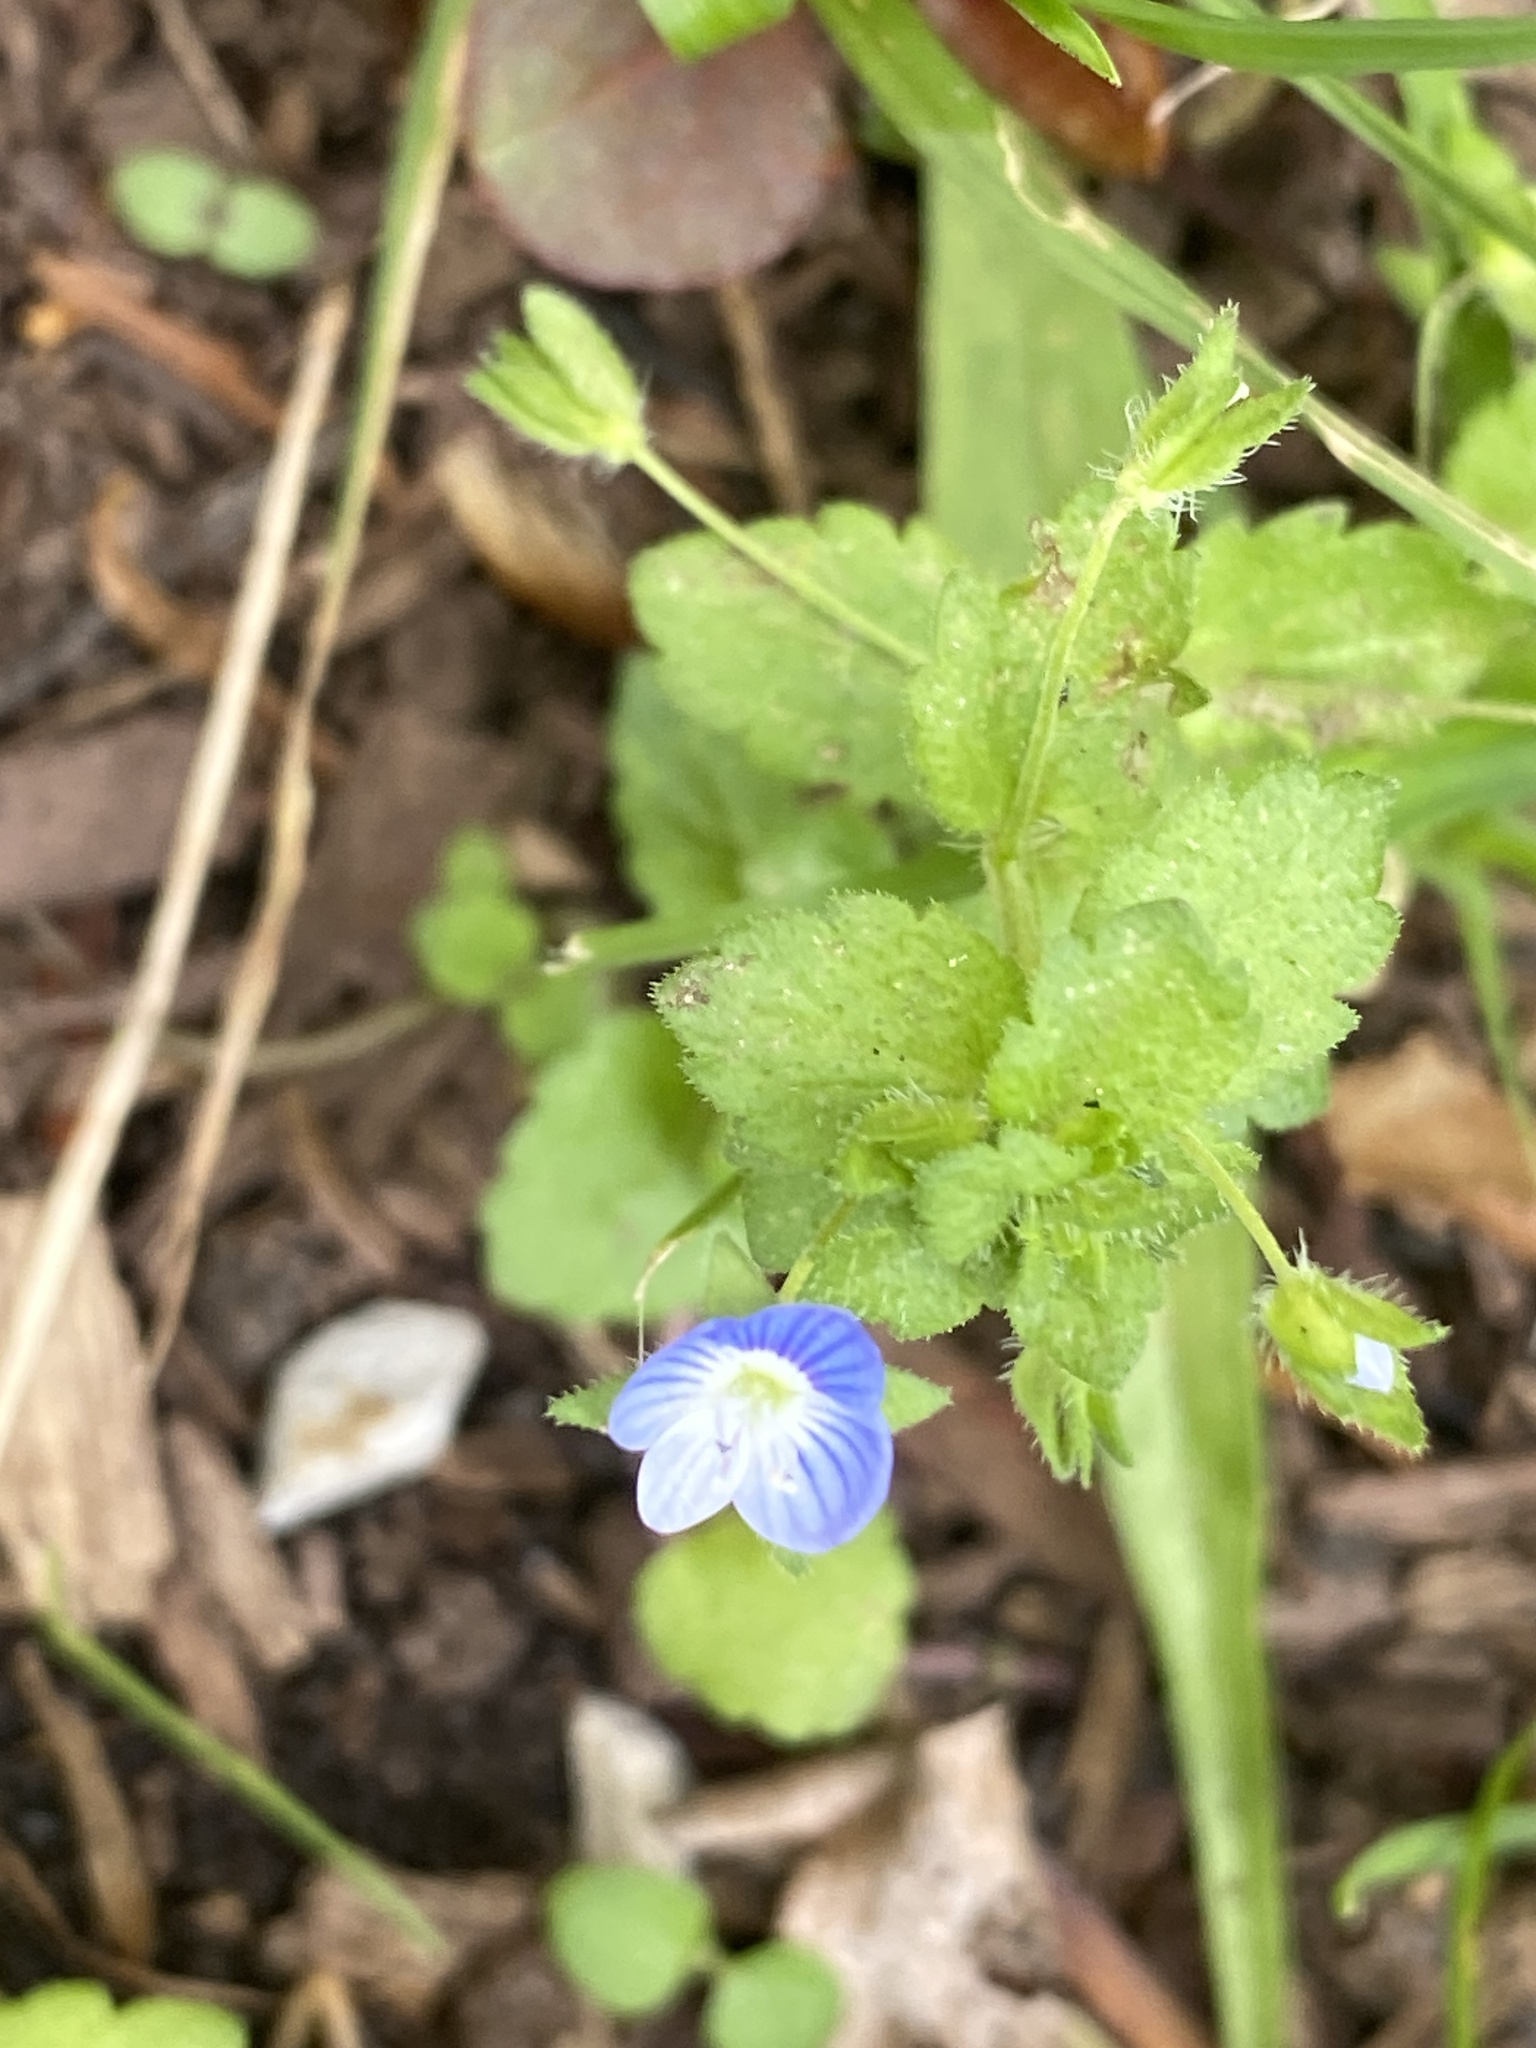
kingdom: Plantae
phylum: Tracheophyta
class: Magnoliopsida
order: Lamiales
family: Plantaginaceae
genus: Veronica
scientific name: Veronica persica
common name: Common field-speedwell
